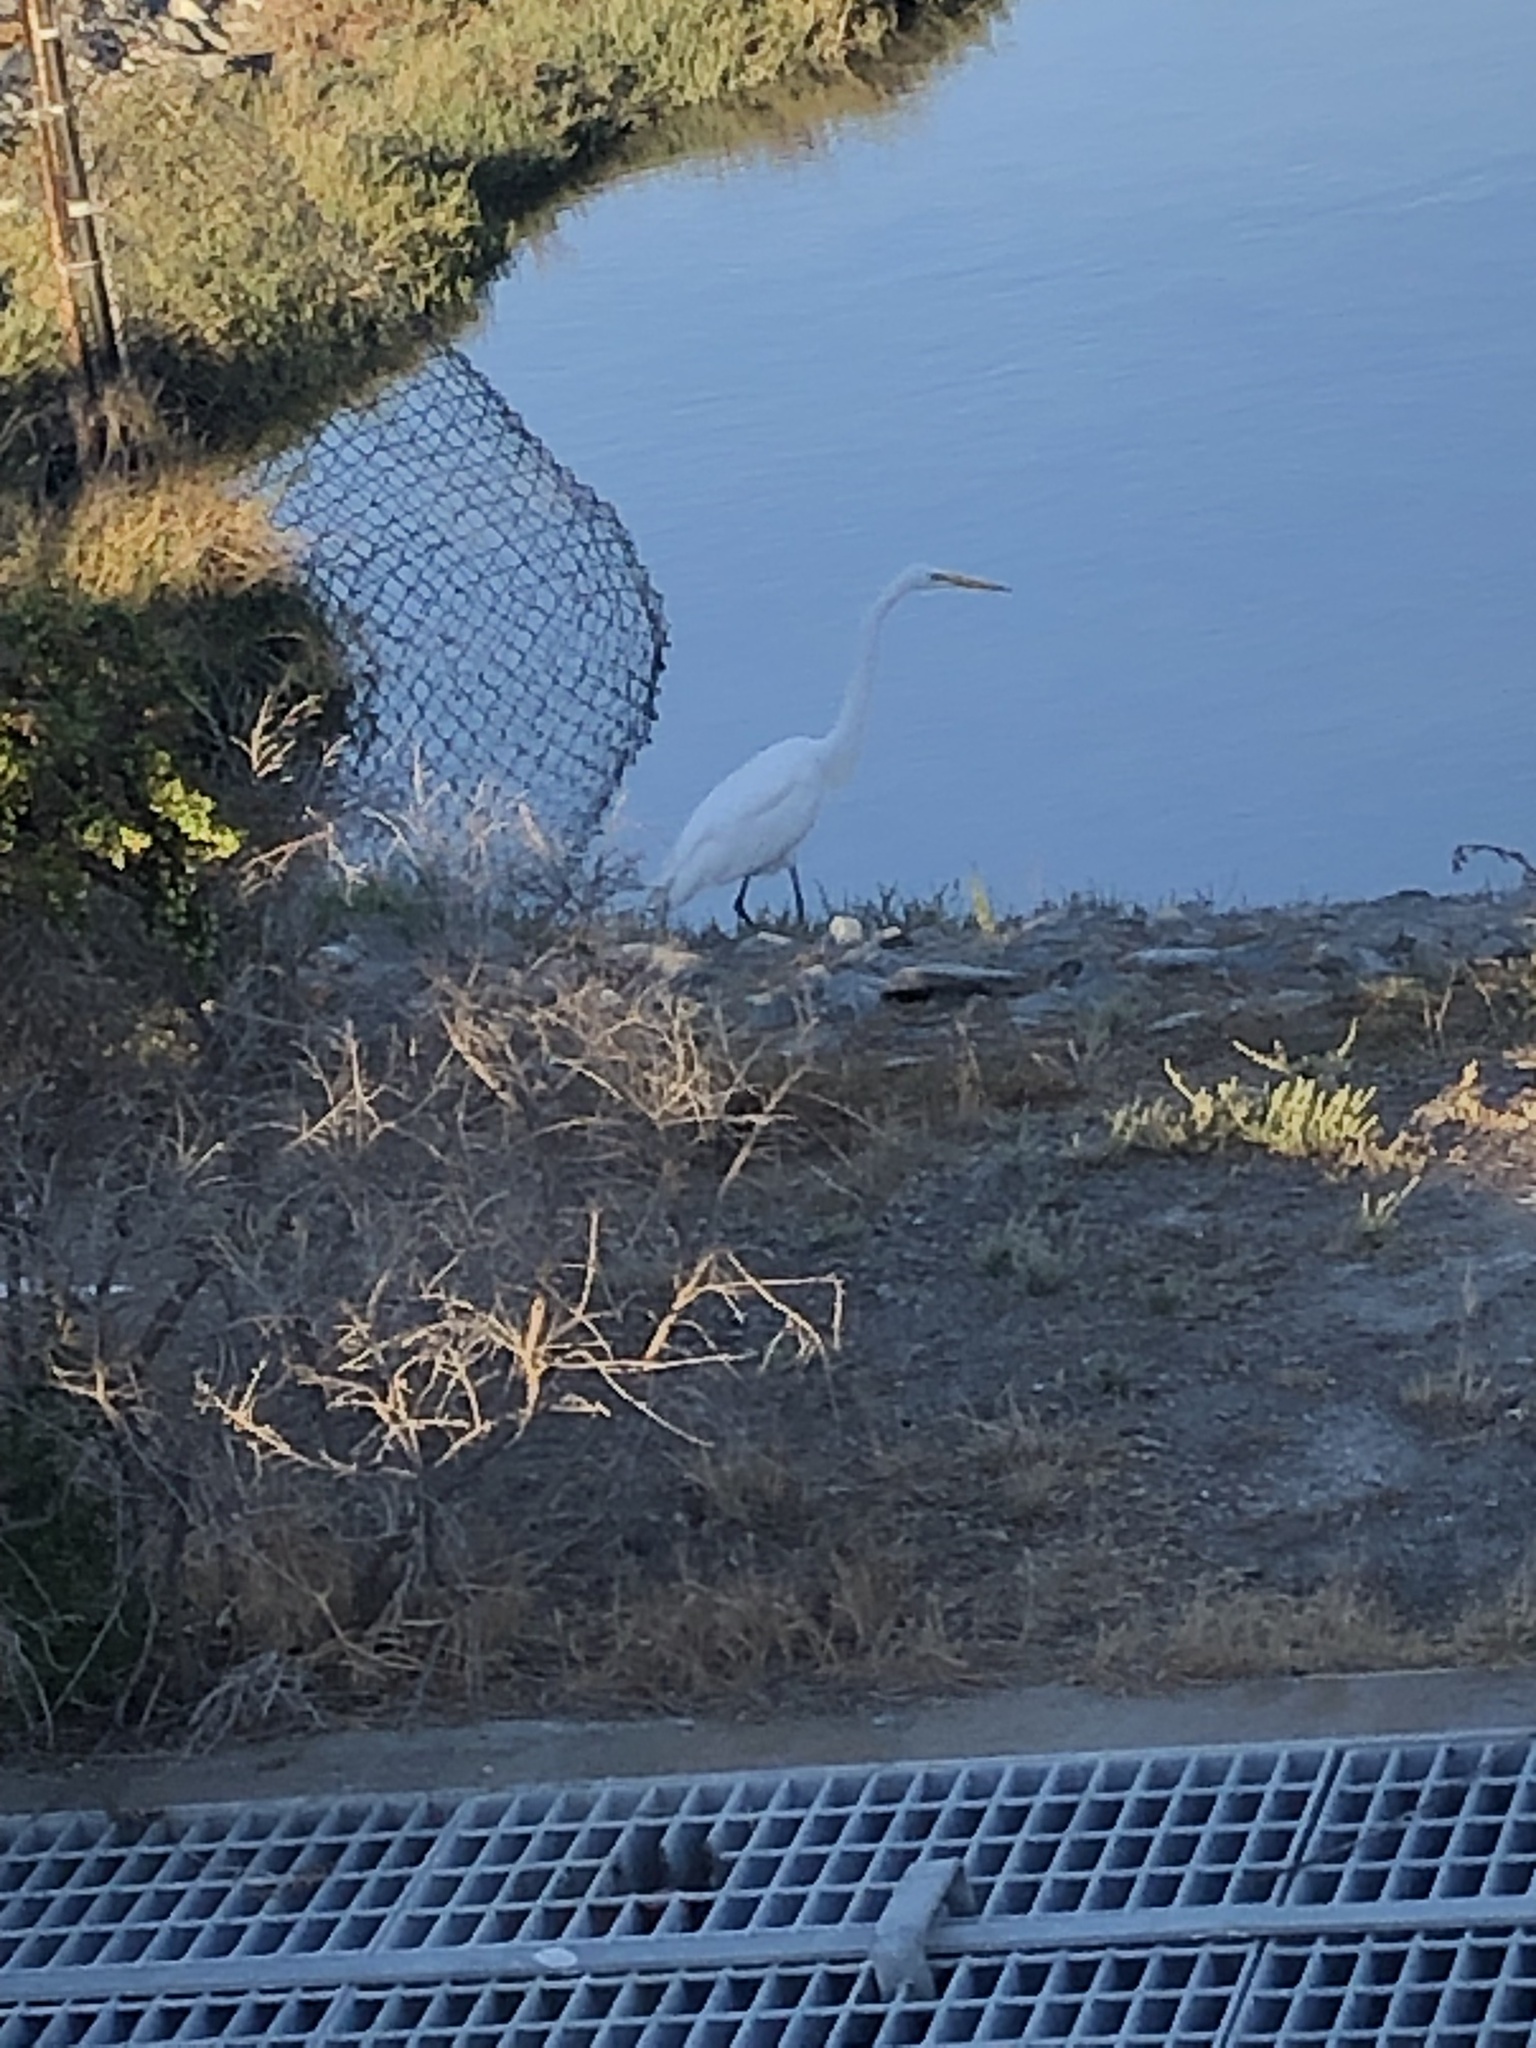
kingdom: Animalia
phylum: Chordata
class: Aves
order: Pelecaniformes
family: Ardeidae
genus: Ardea
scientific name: Ardea alba
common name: Great egret
